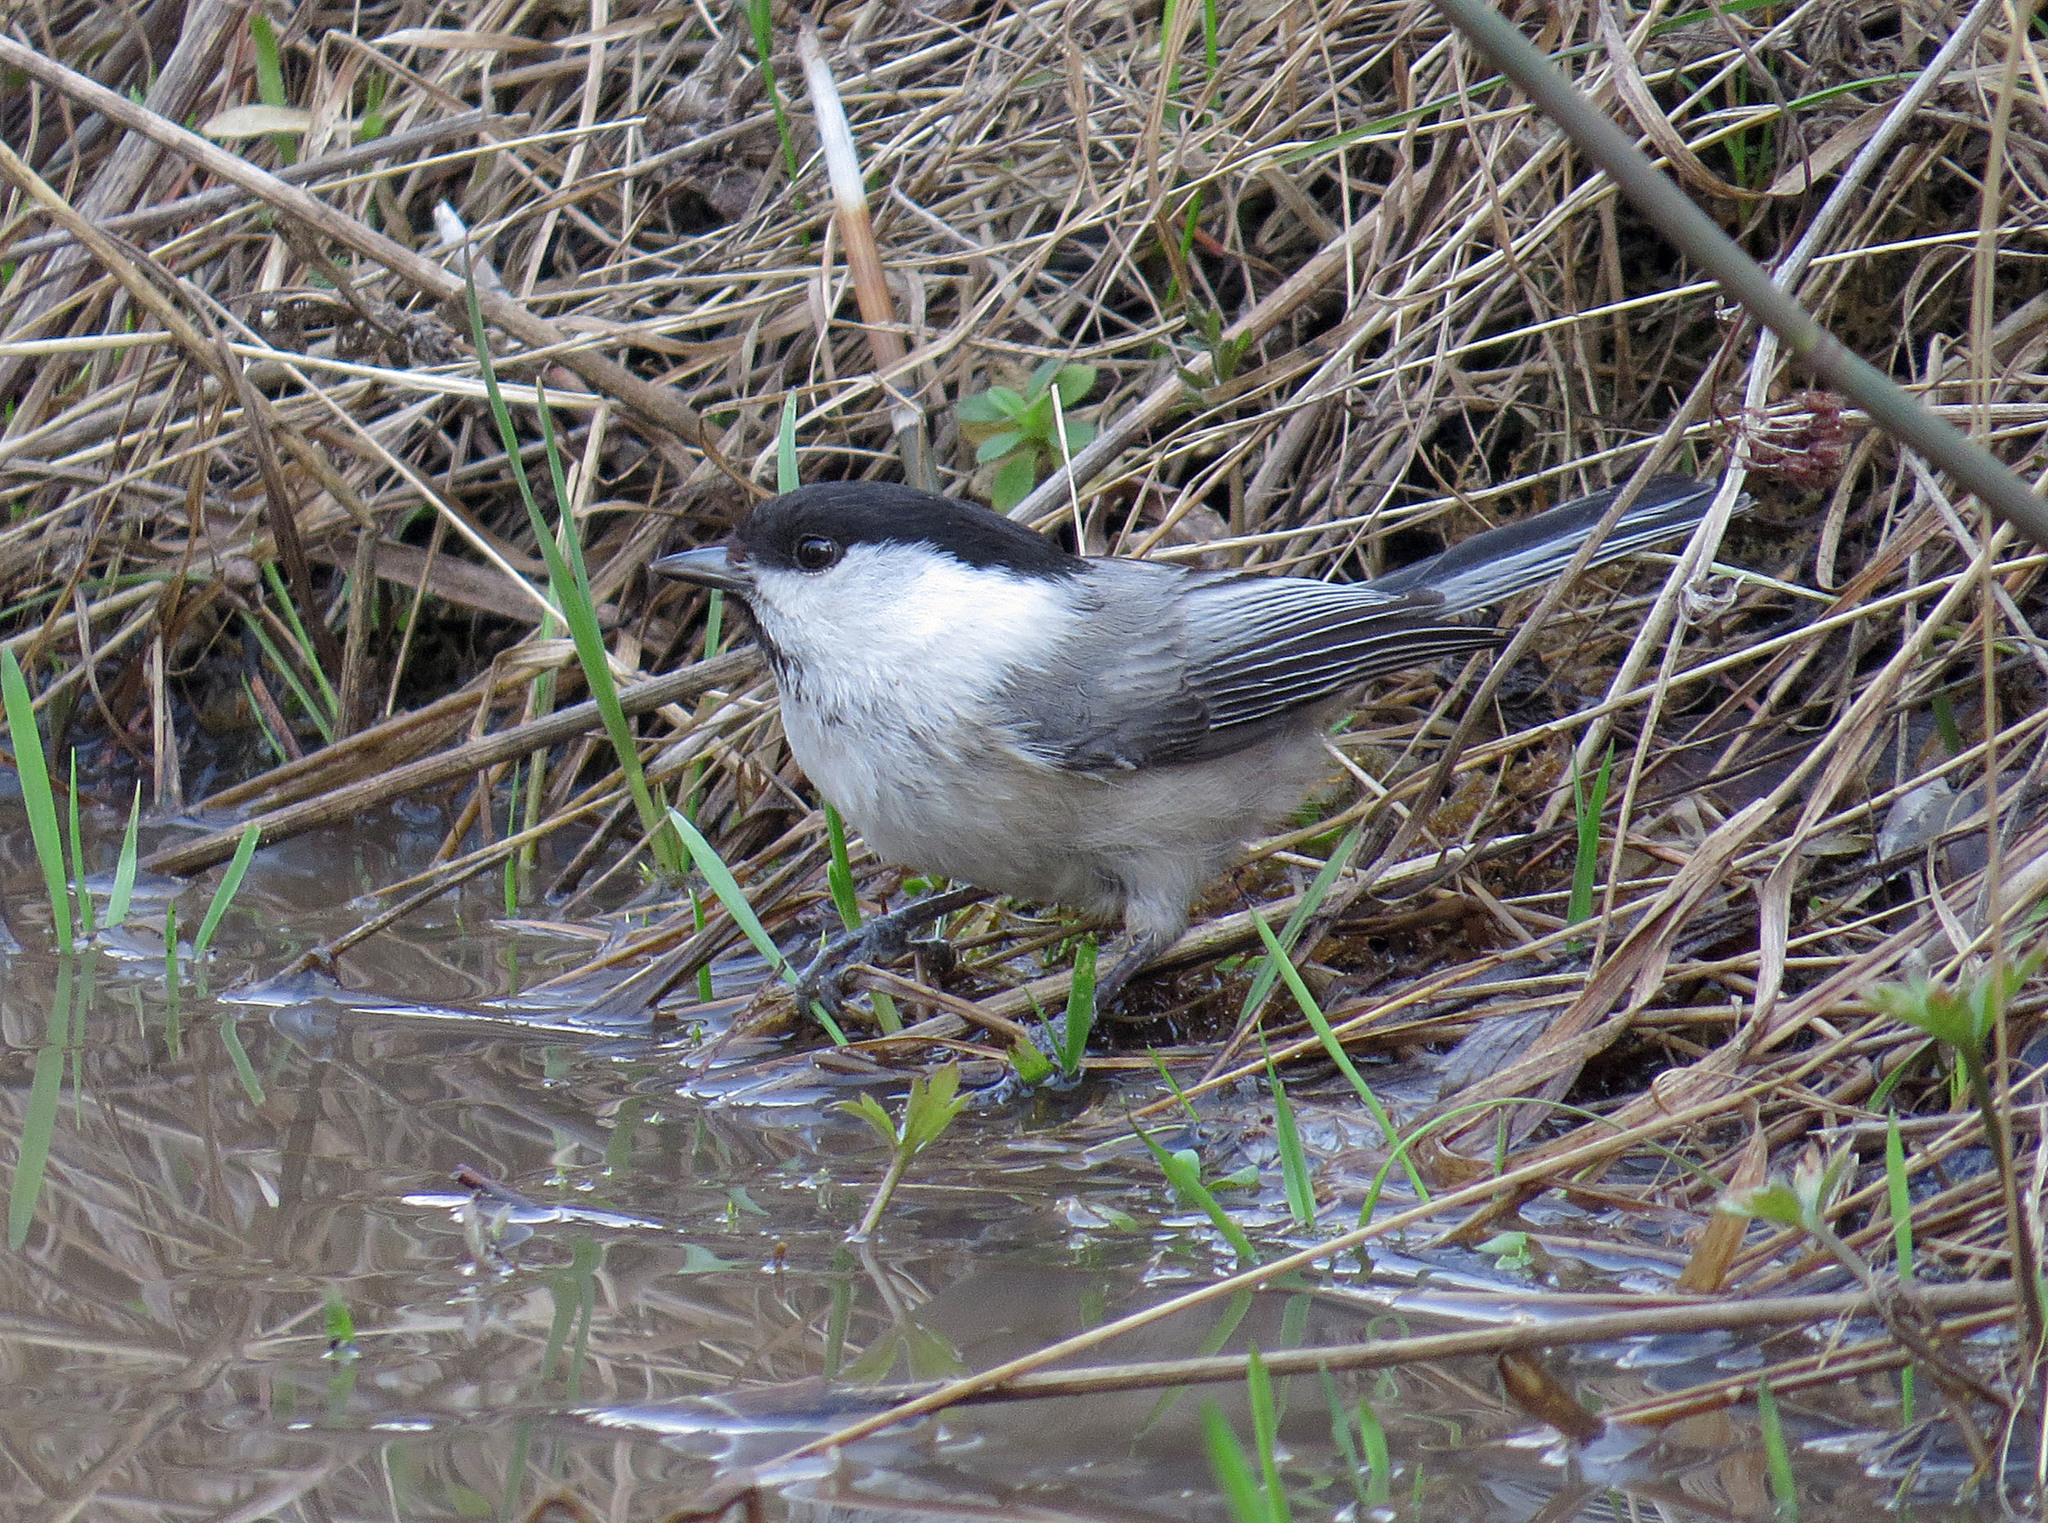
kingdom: Animalia
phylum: Chordata
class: Aves
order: Passeriformes
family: Paridae
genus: Poecile
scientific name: Poecile montanus
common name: Willow tit
